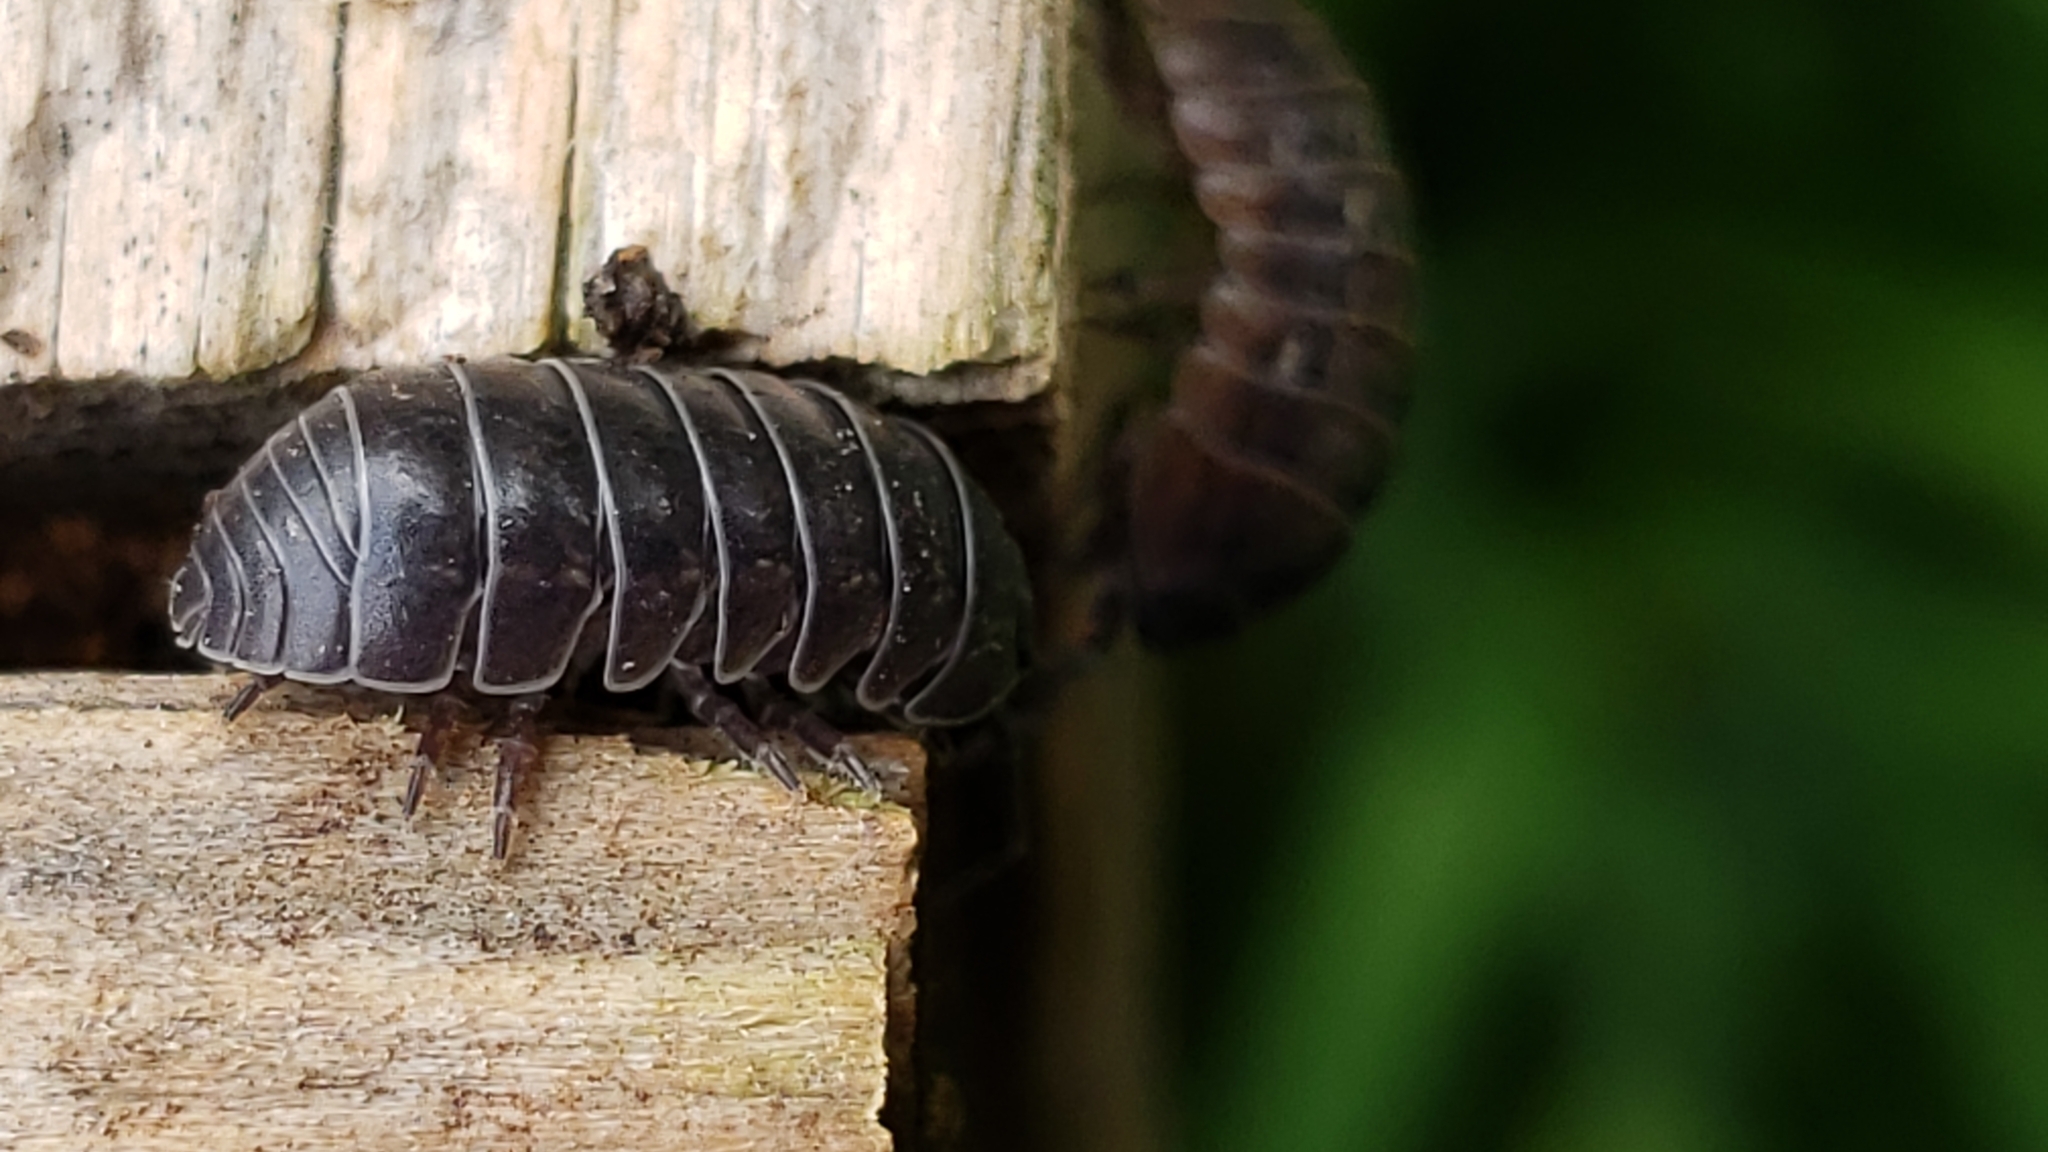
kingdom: Animalia
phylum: Arthropoda
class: Malacostraca
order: Isopoda
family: Armadillidiidae
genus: Armadillidium
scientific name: Armadillidium vulgare
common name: Common pill woodlouse
